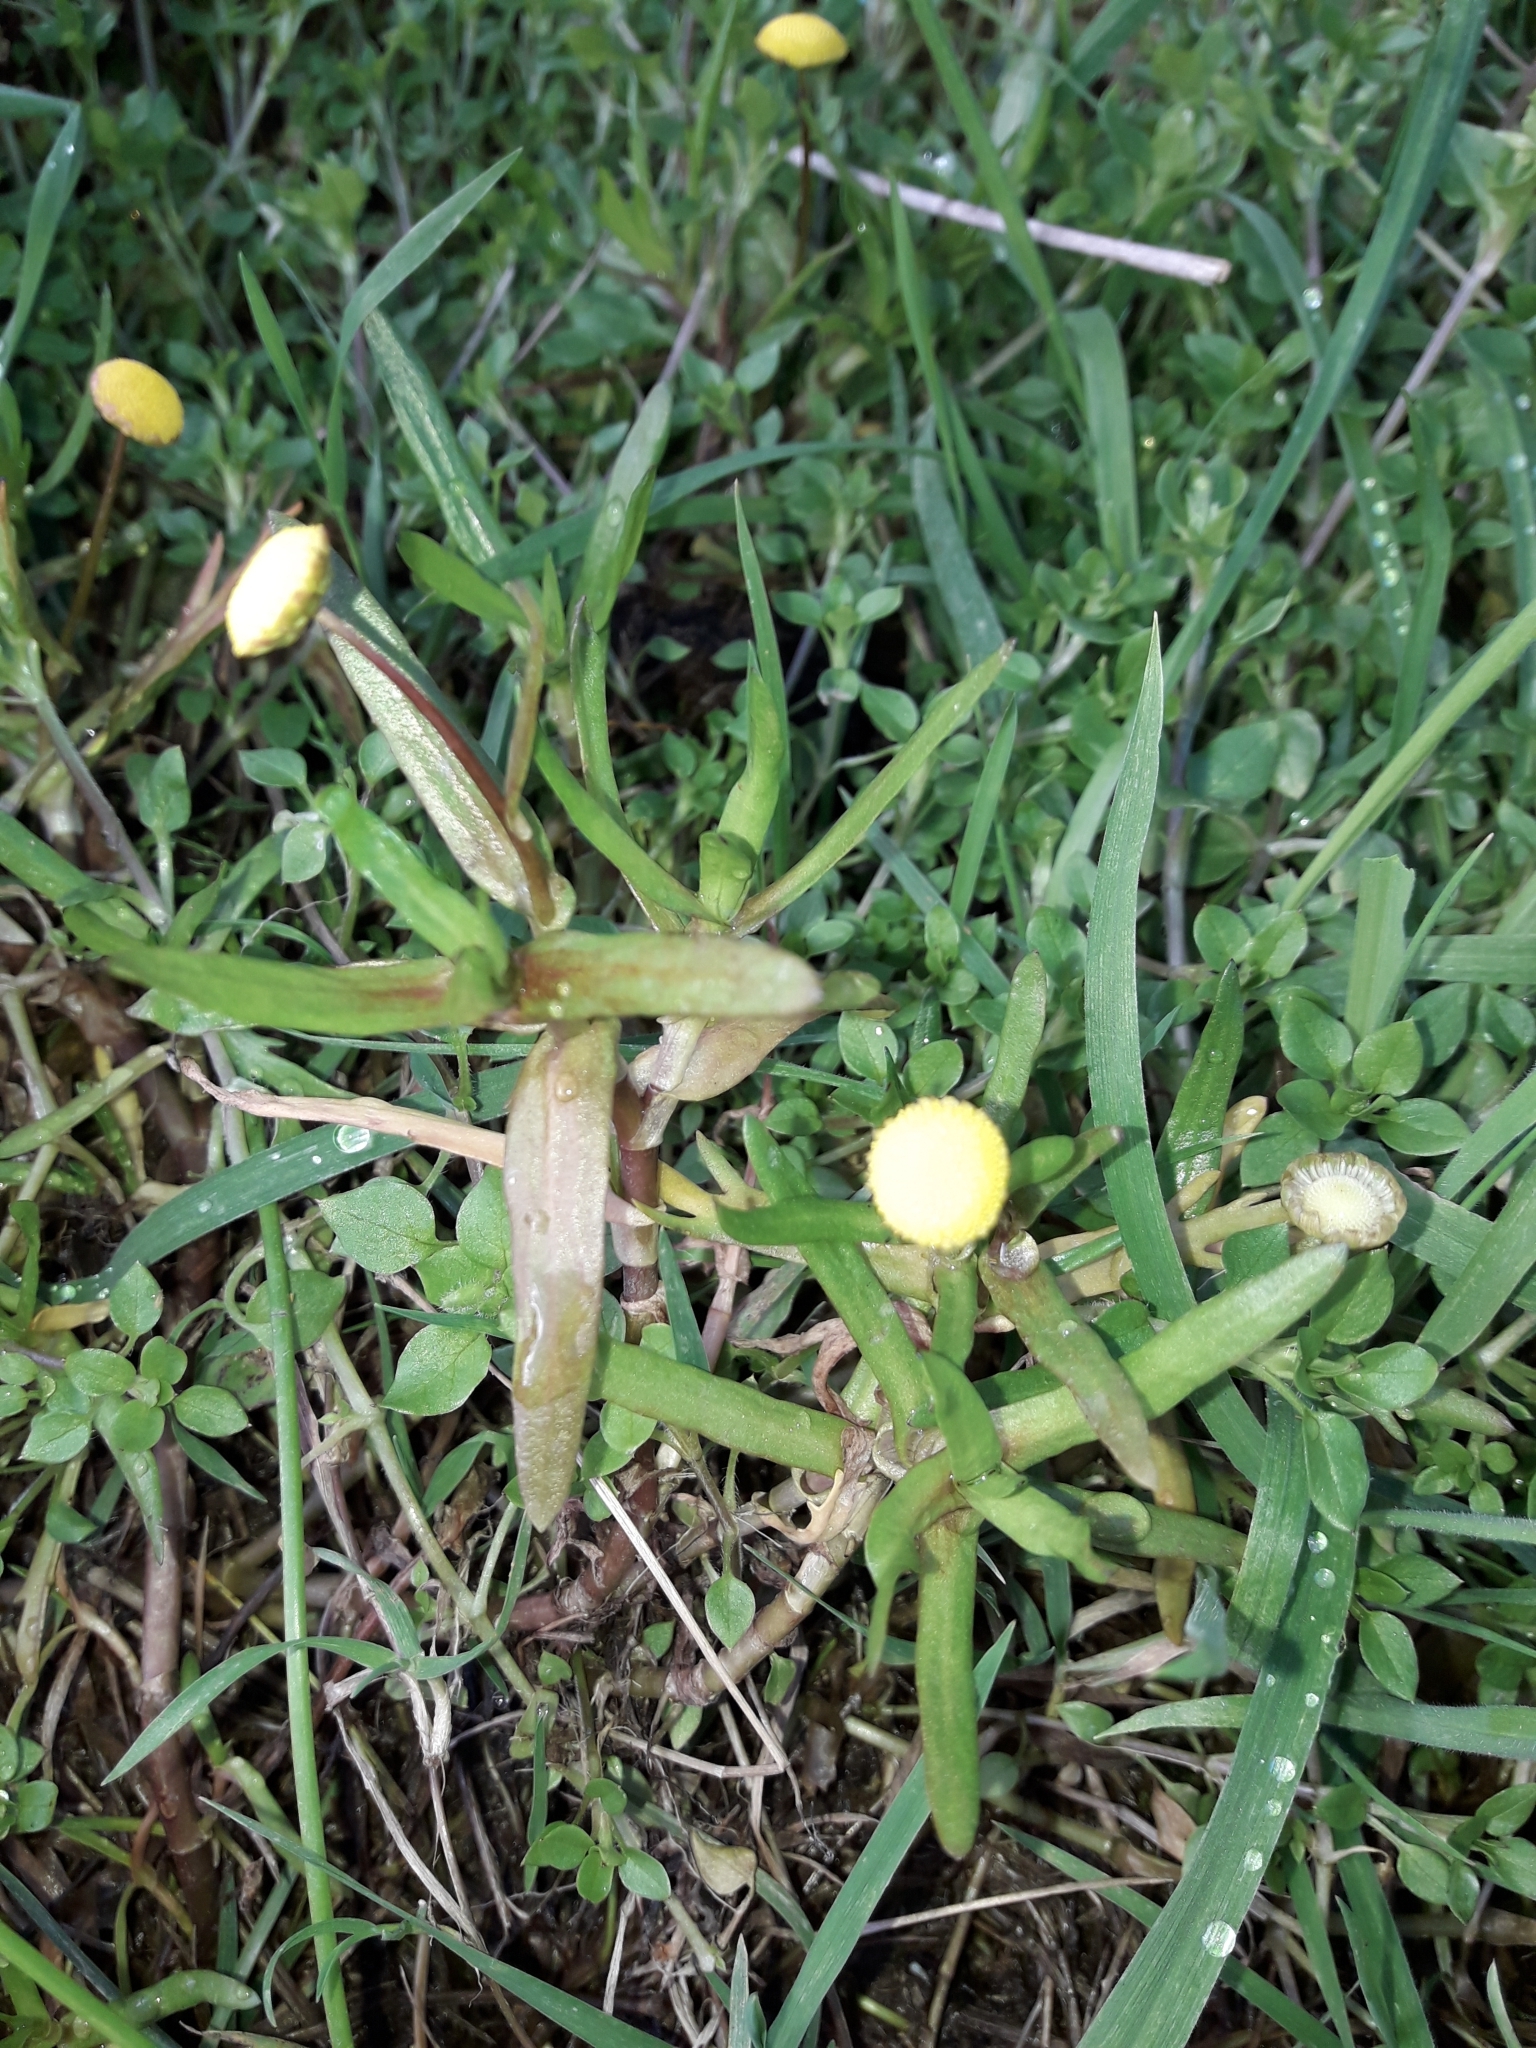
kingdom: Plantae
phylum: Tracheophyta
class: Magnoliopsida
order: Asterales
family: Asteraceae
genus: Cotula
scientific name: Cotula coronopifolia
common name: Buttonweed
